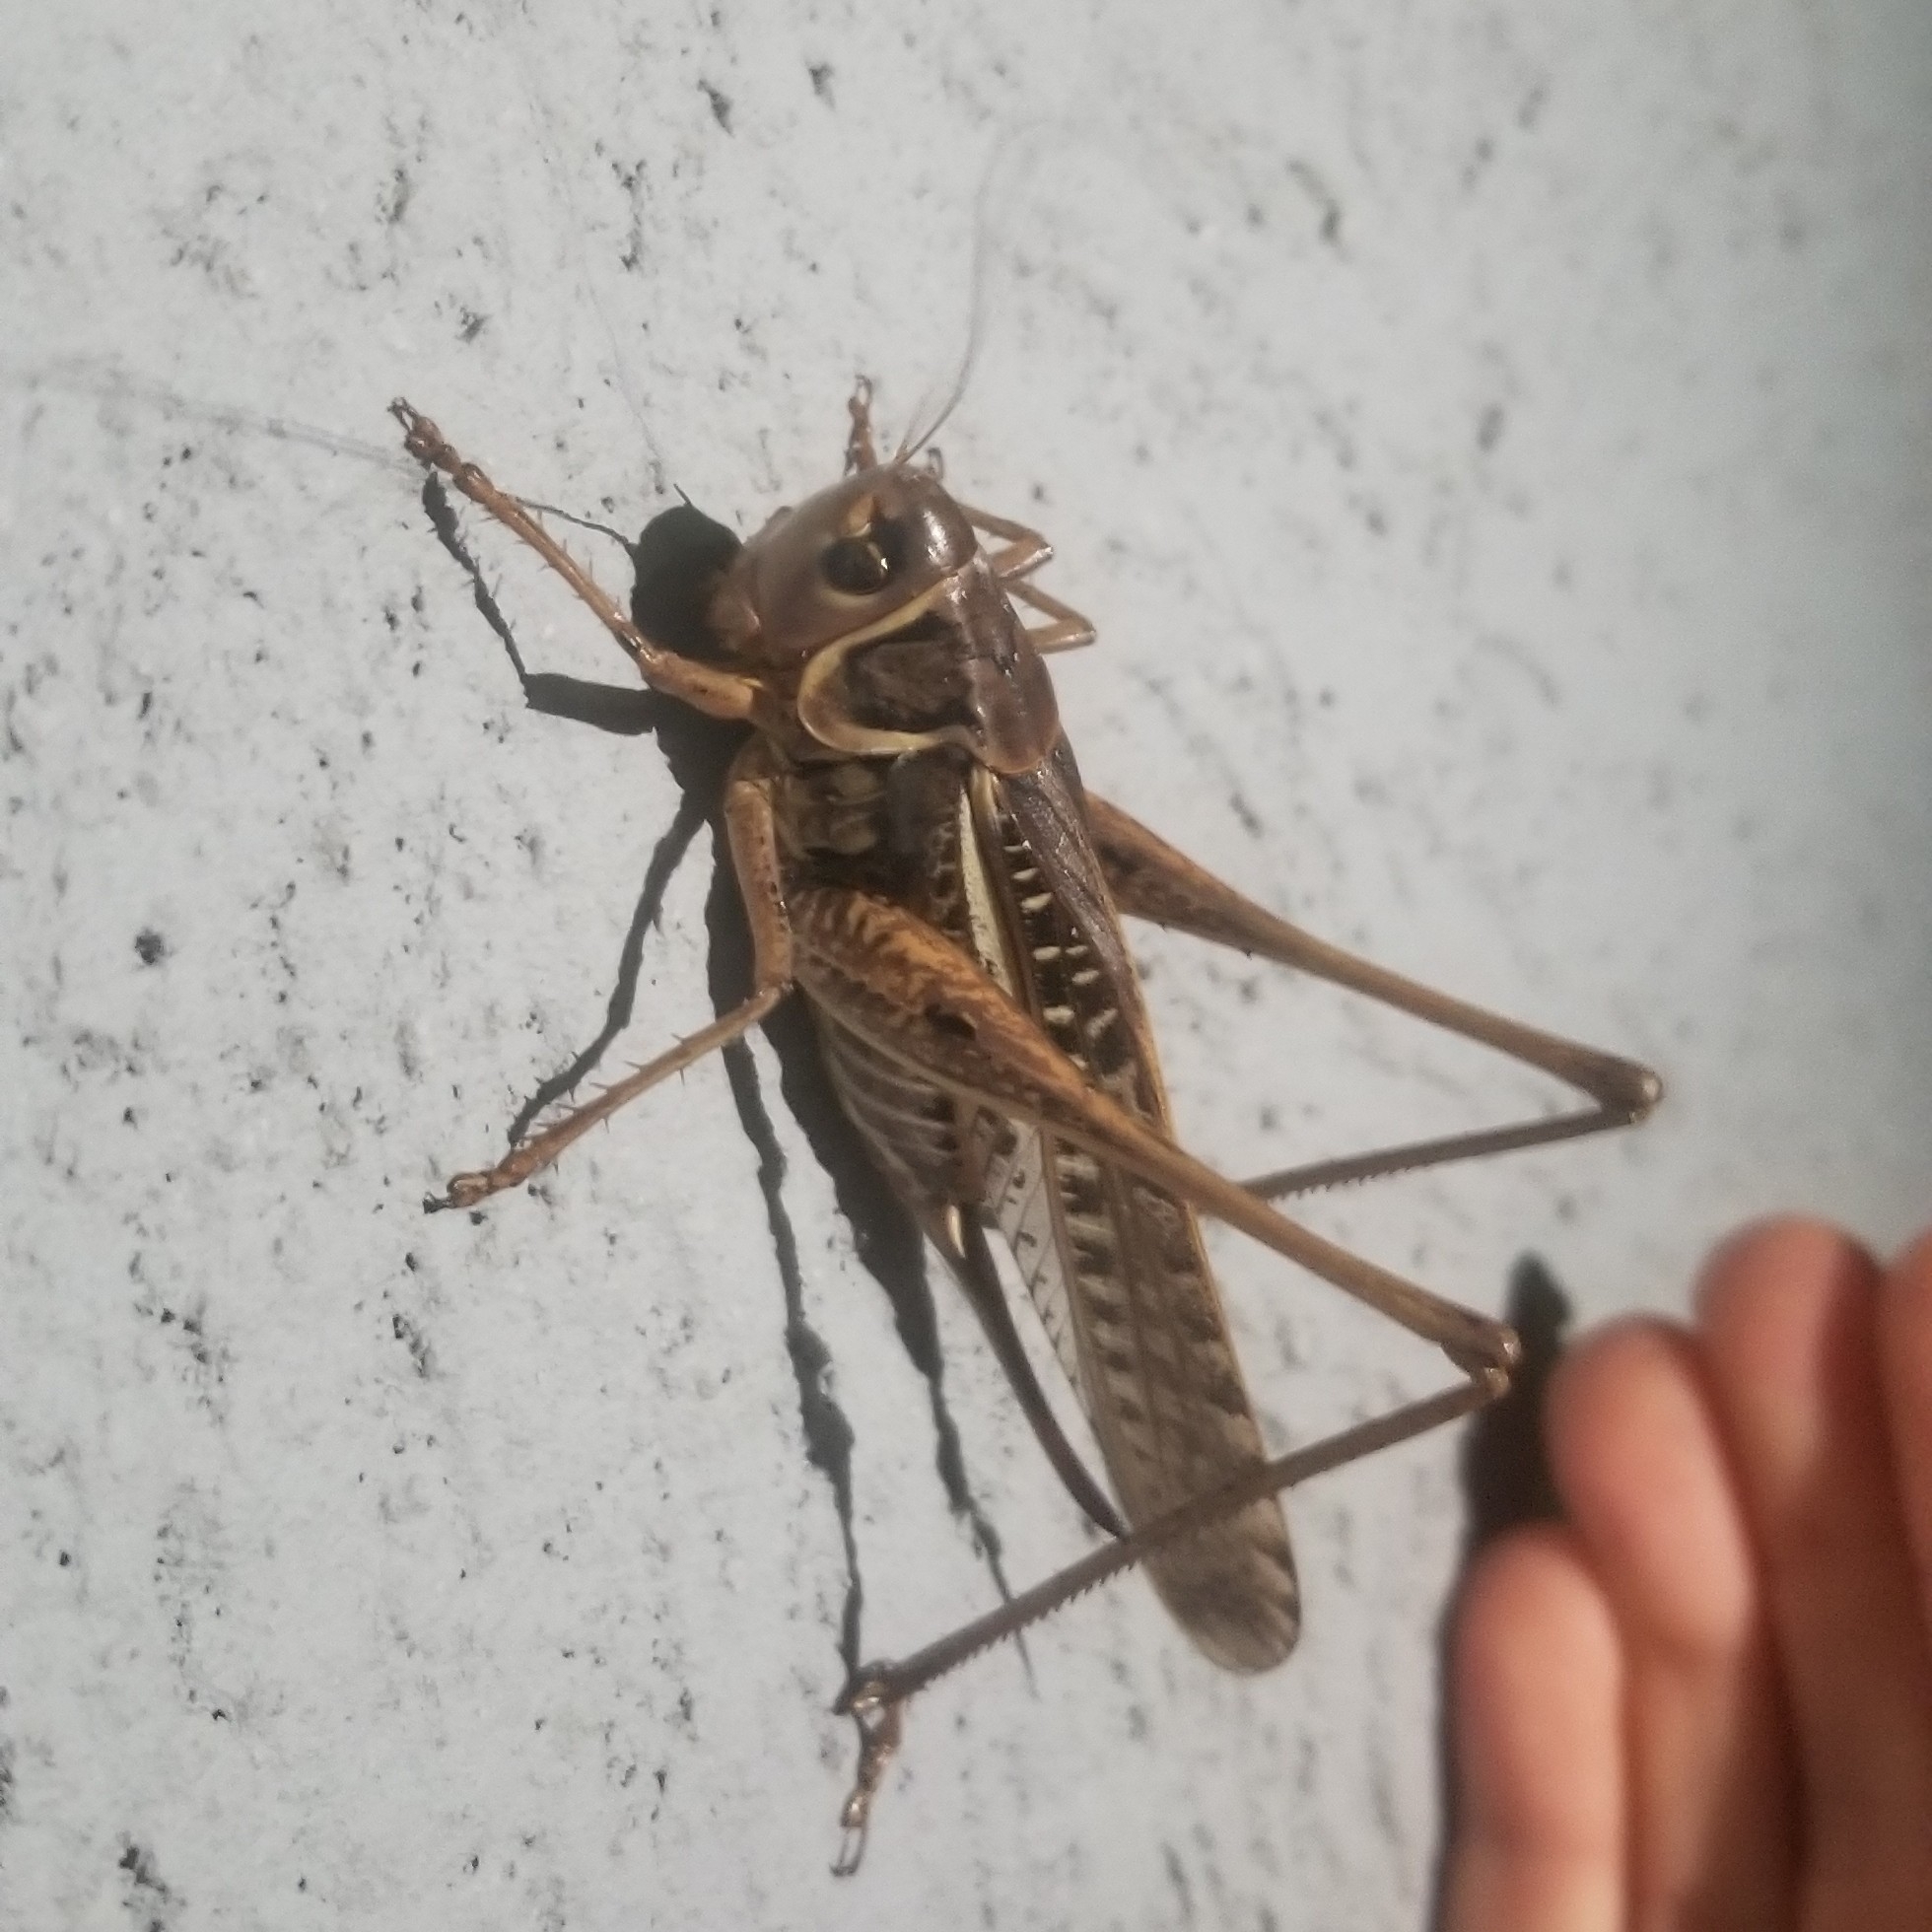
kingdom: Animalia
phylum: Arthropoda
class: Insecta
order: Orthoptera
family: Tettigoniidae
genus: Decticus
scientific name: Decticus albifrons
